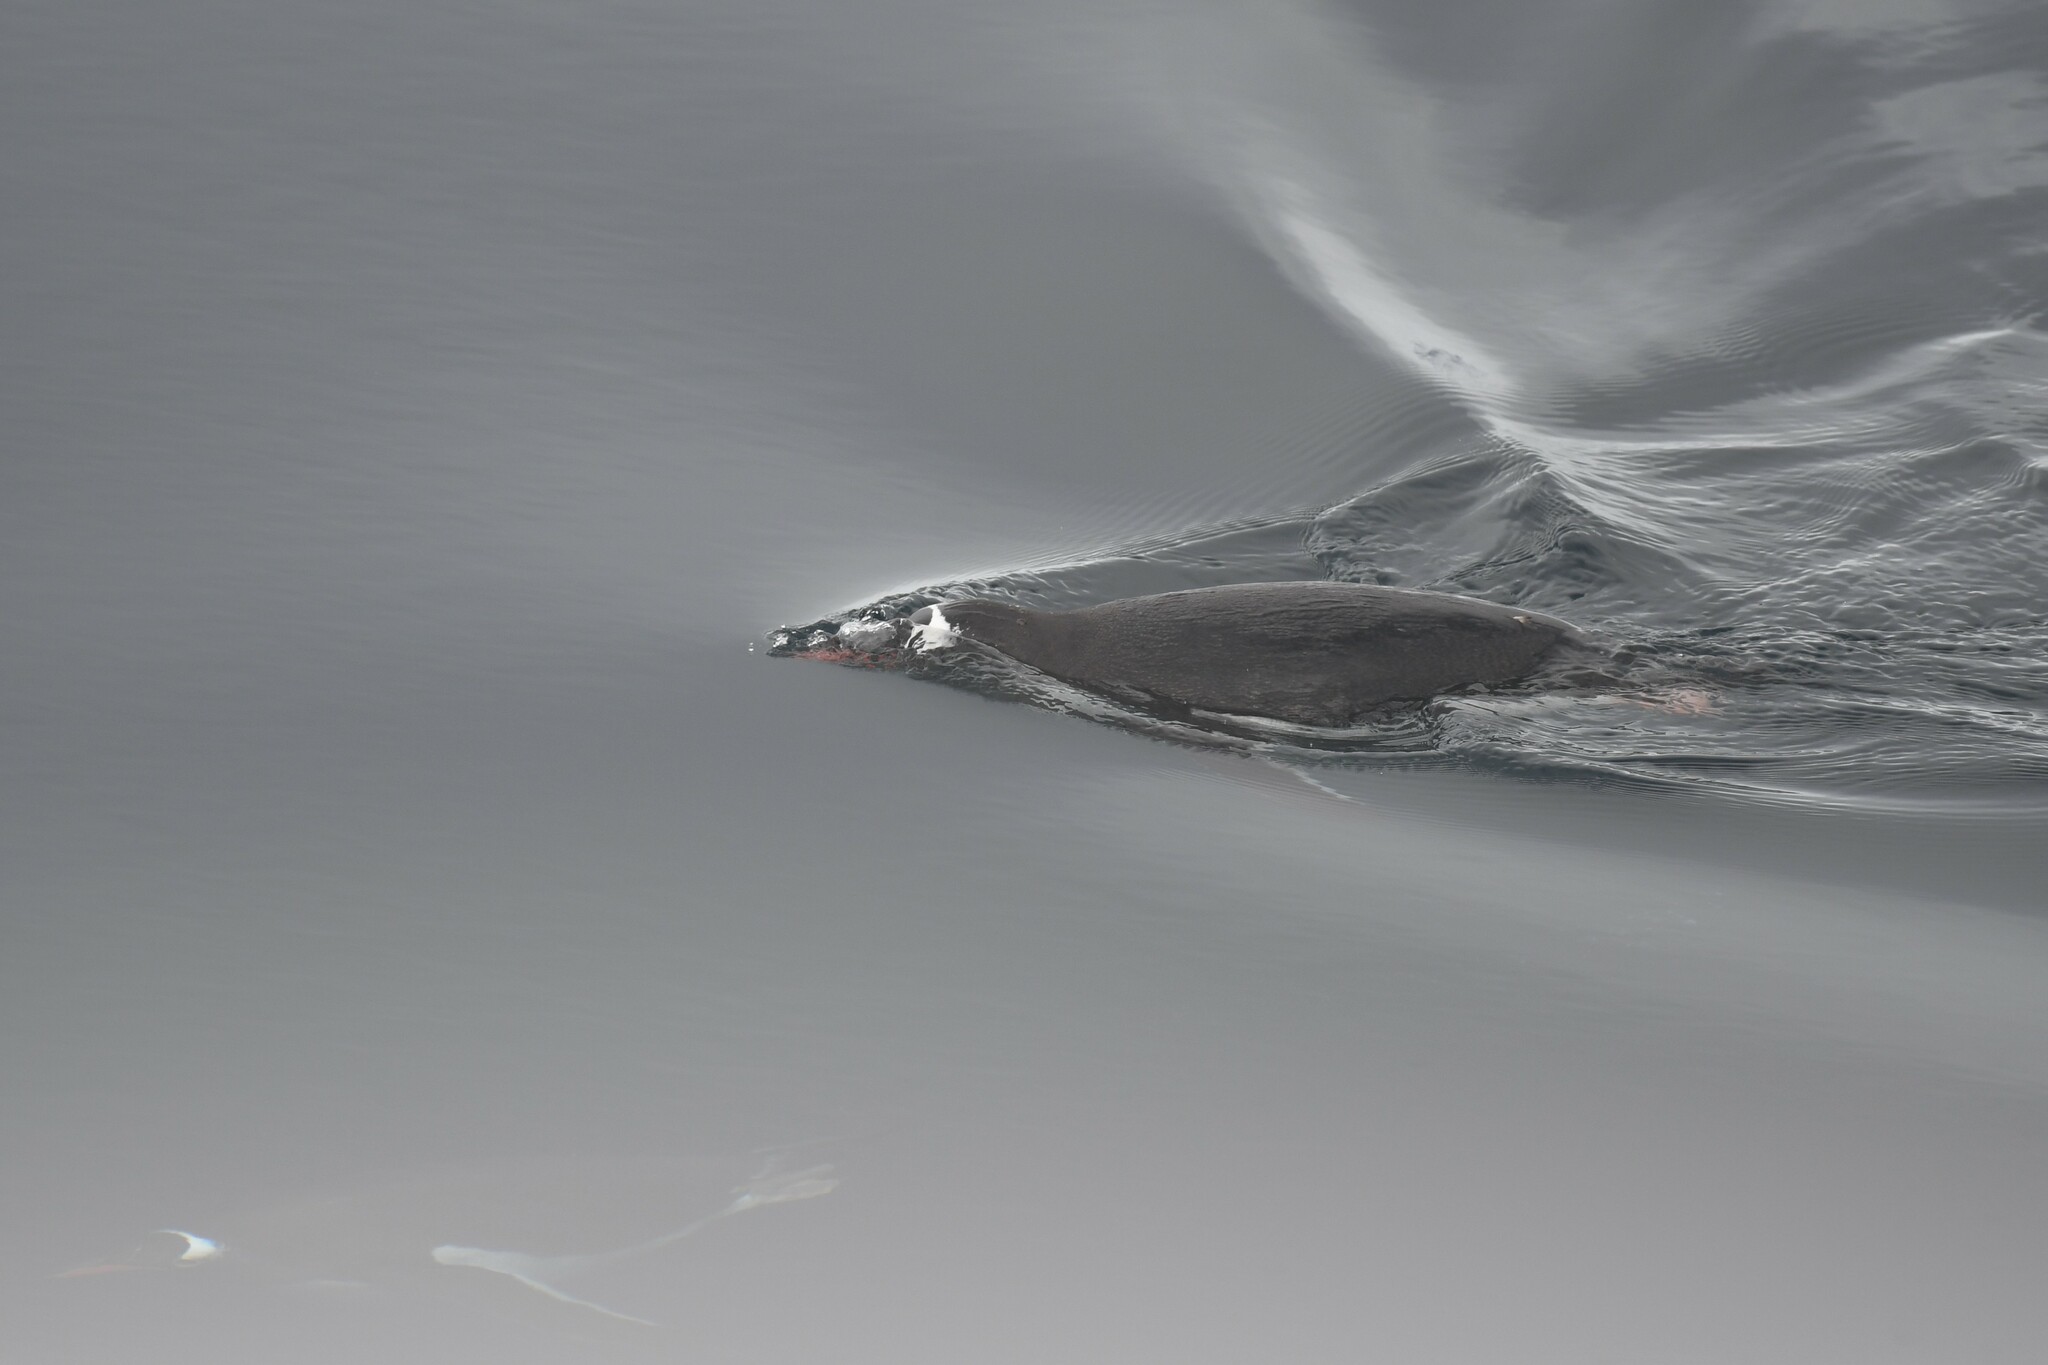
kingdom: Animalia
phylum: Chordata
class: Aves
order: Sphenisciformes
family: Spheniscidae
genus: Pygoscelis
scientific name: Pygoscelis papua
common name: Gentoo penguin
